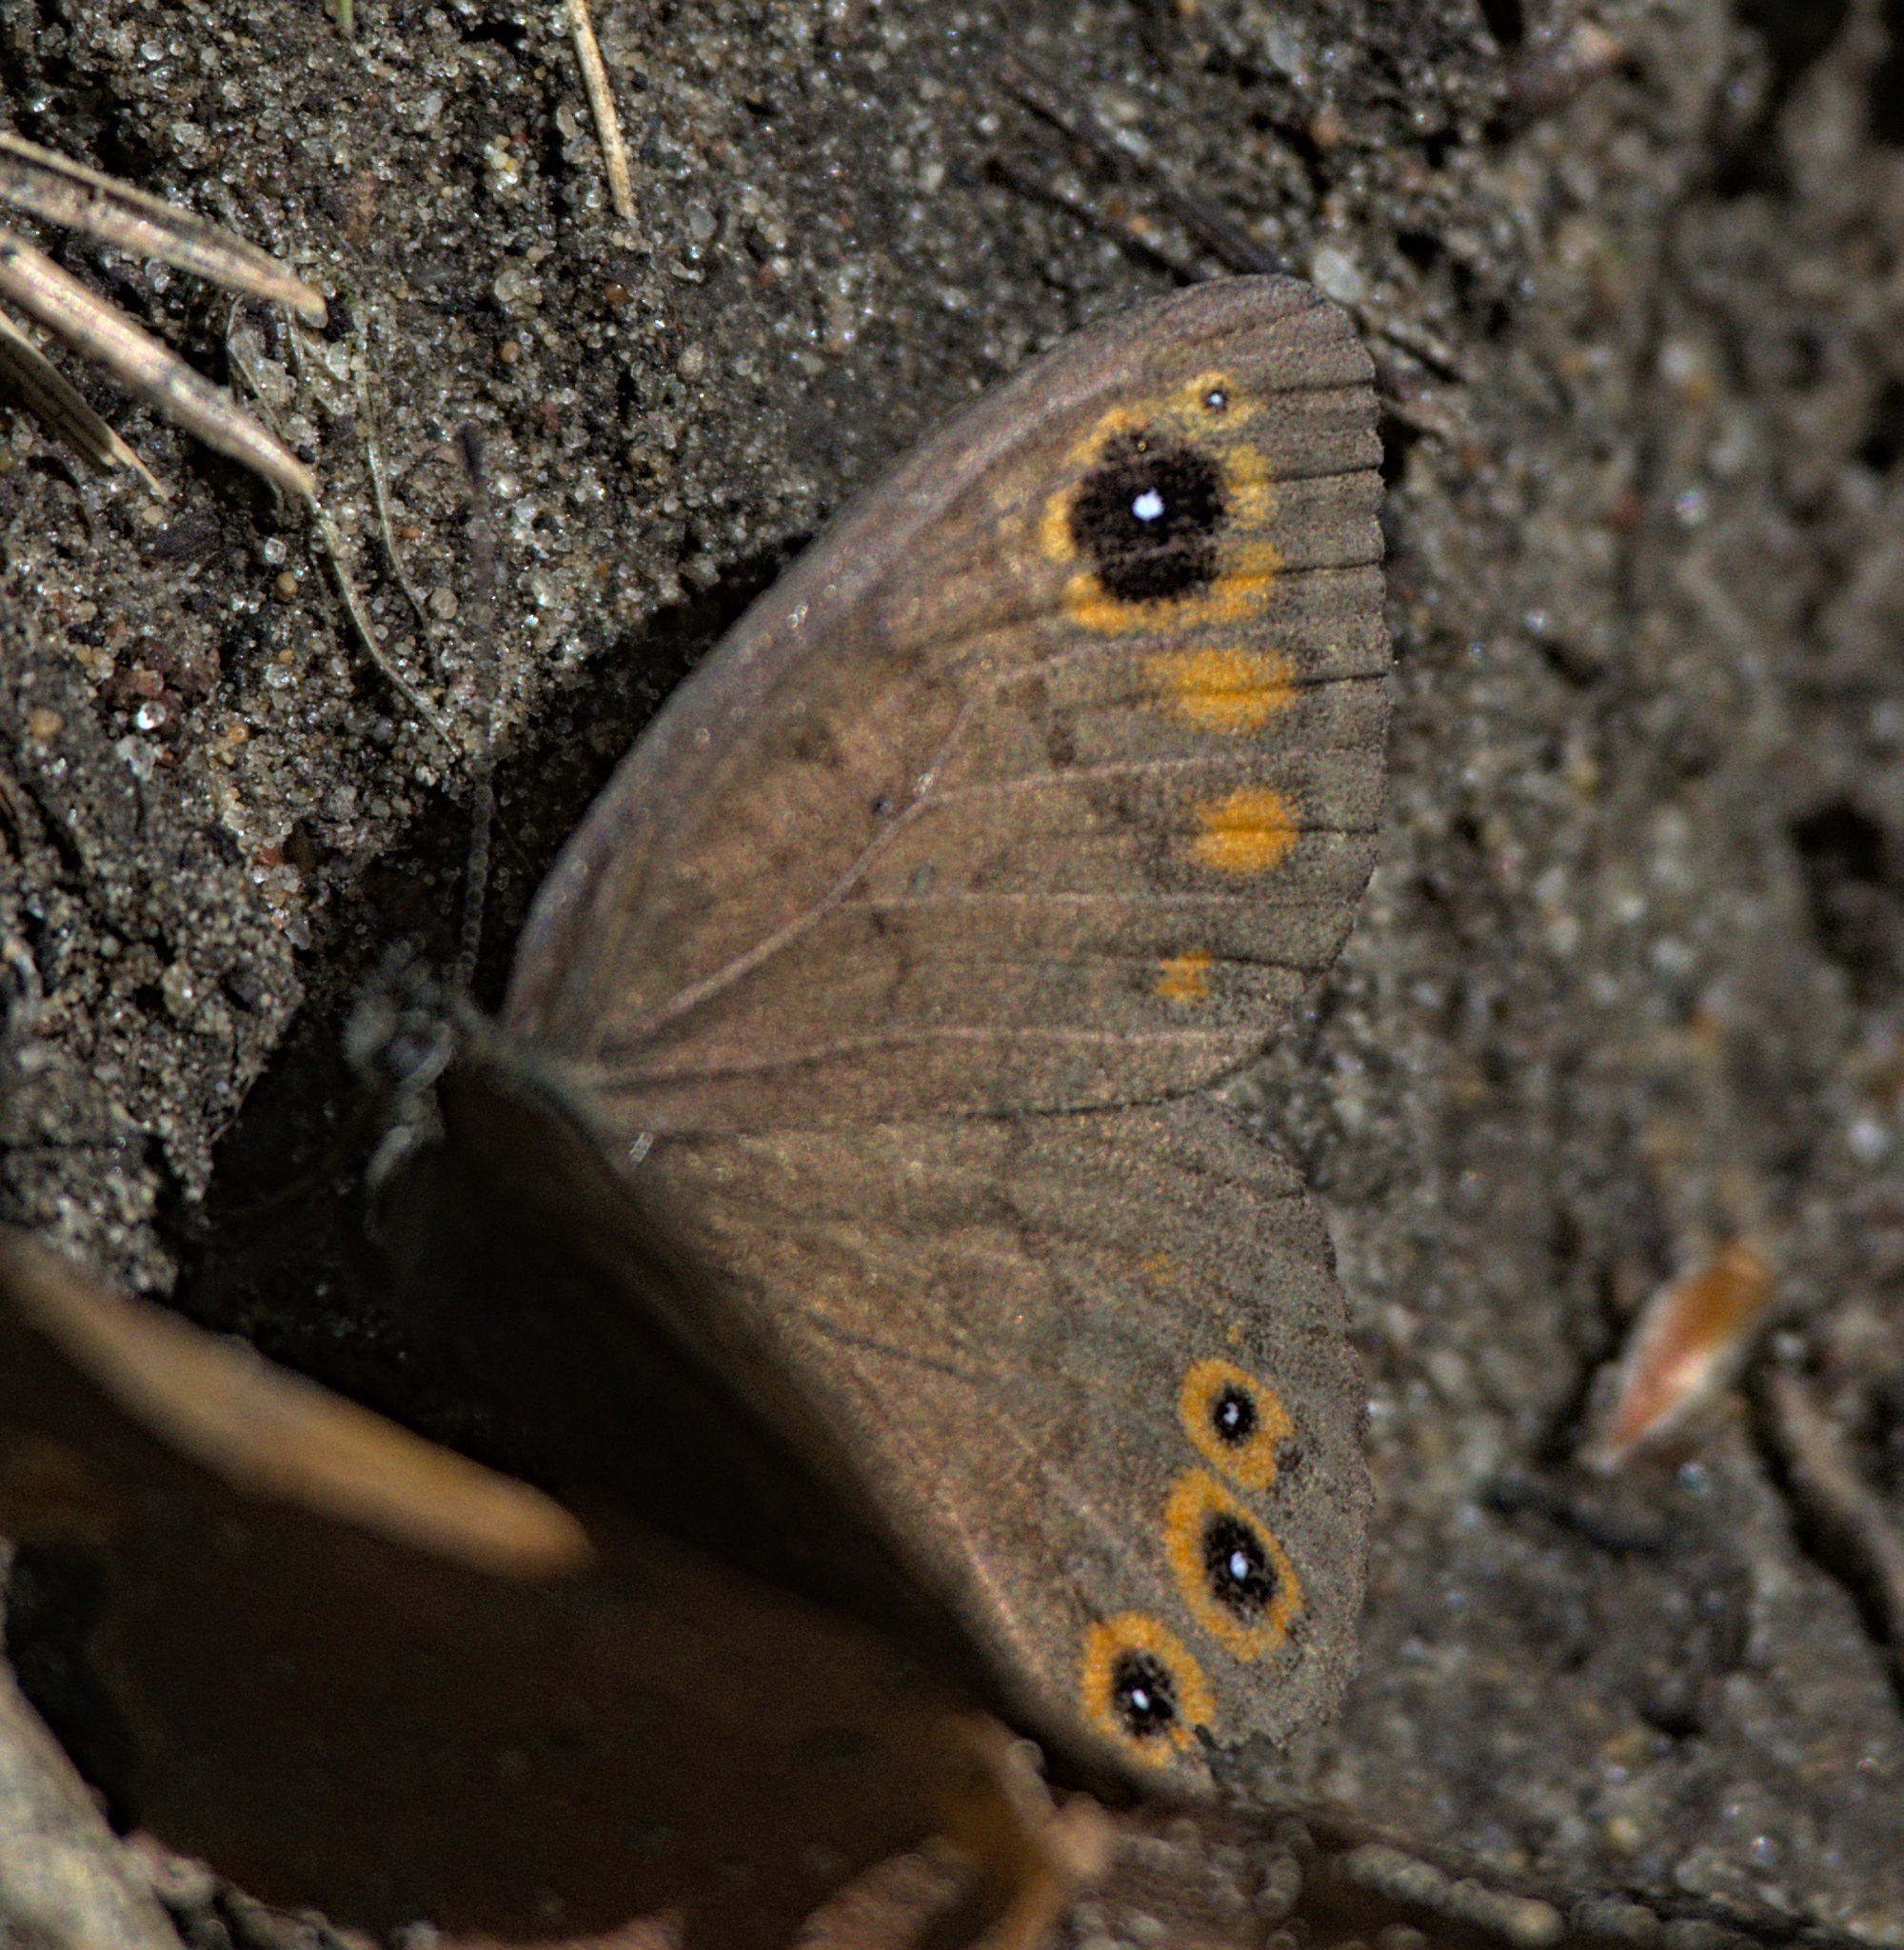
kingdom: Animalia
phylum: Arthropoda
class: Insecta
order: Lepidoptera
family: Nymphalidae
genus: Pararge
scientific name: Pararge petropolitana
